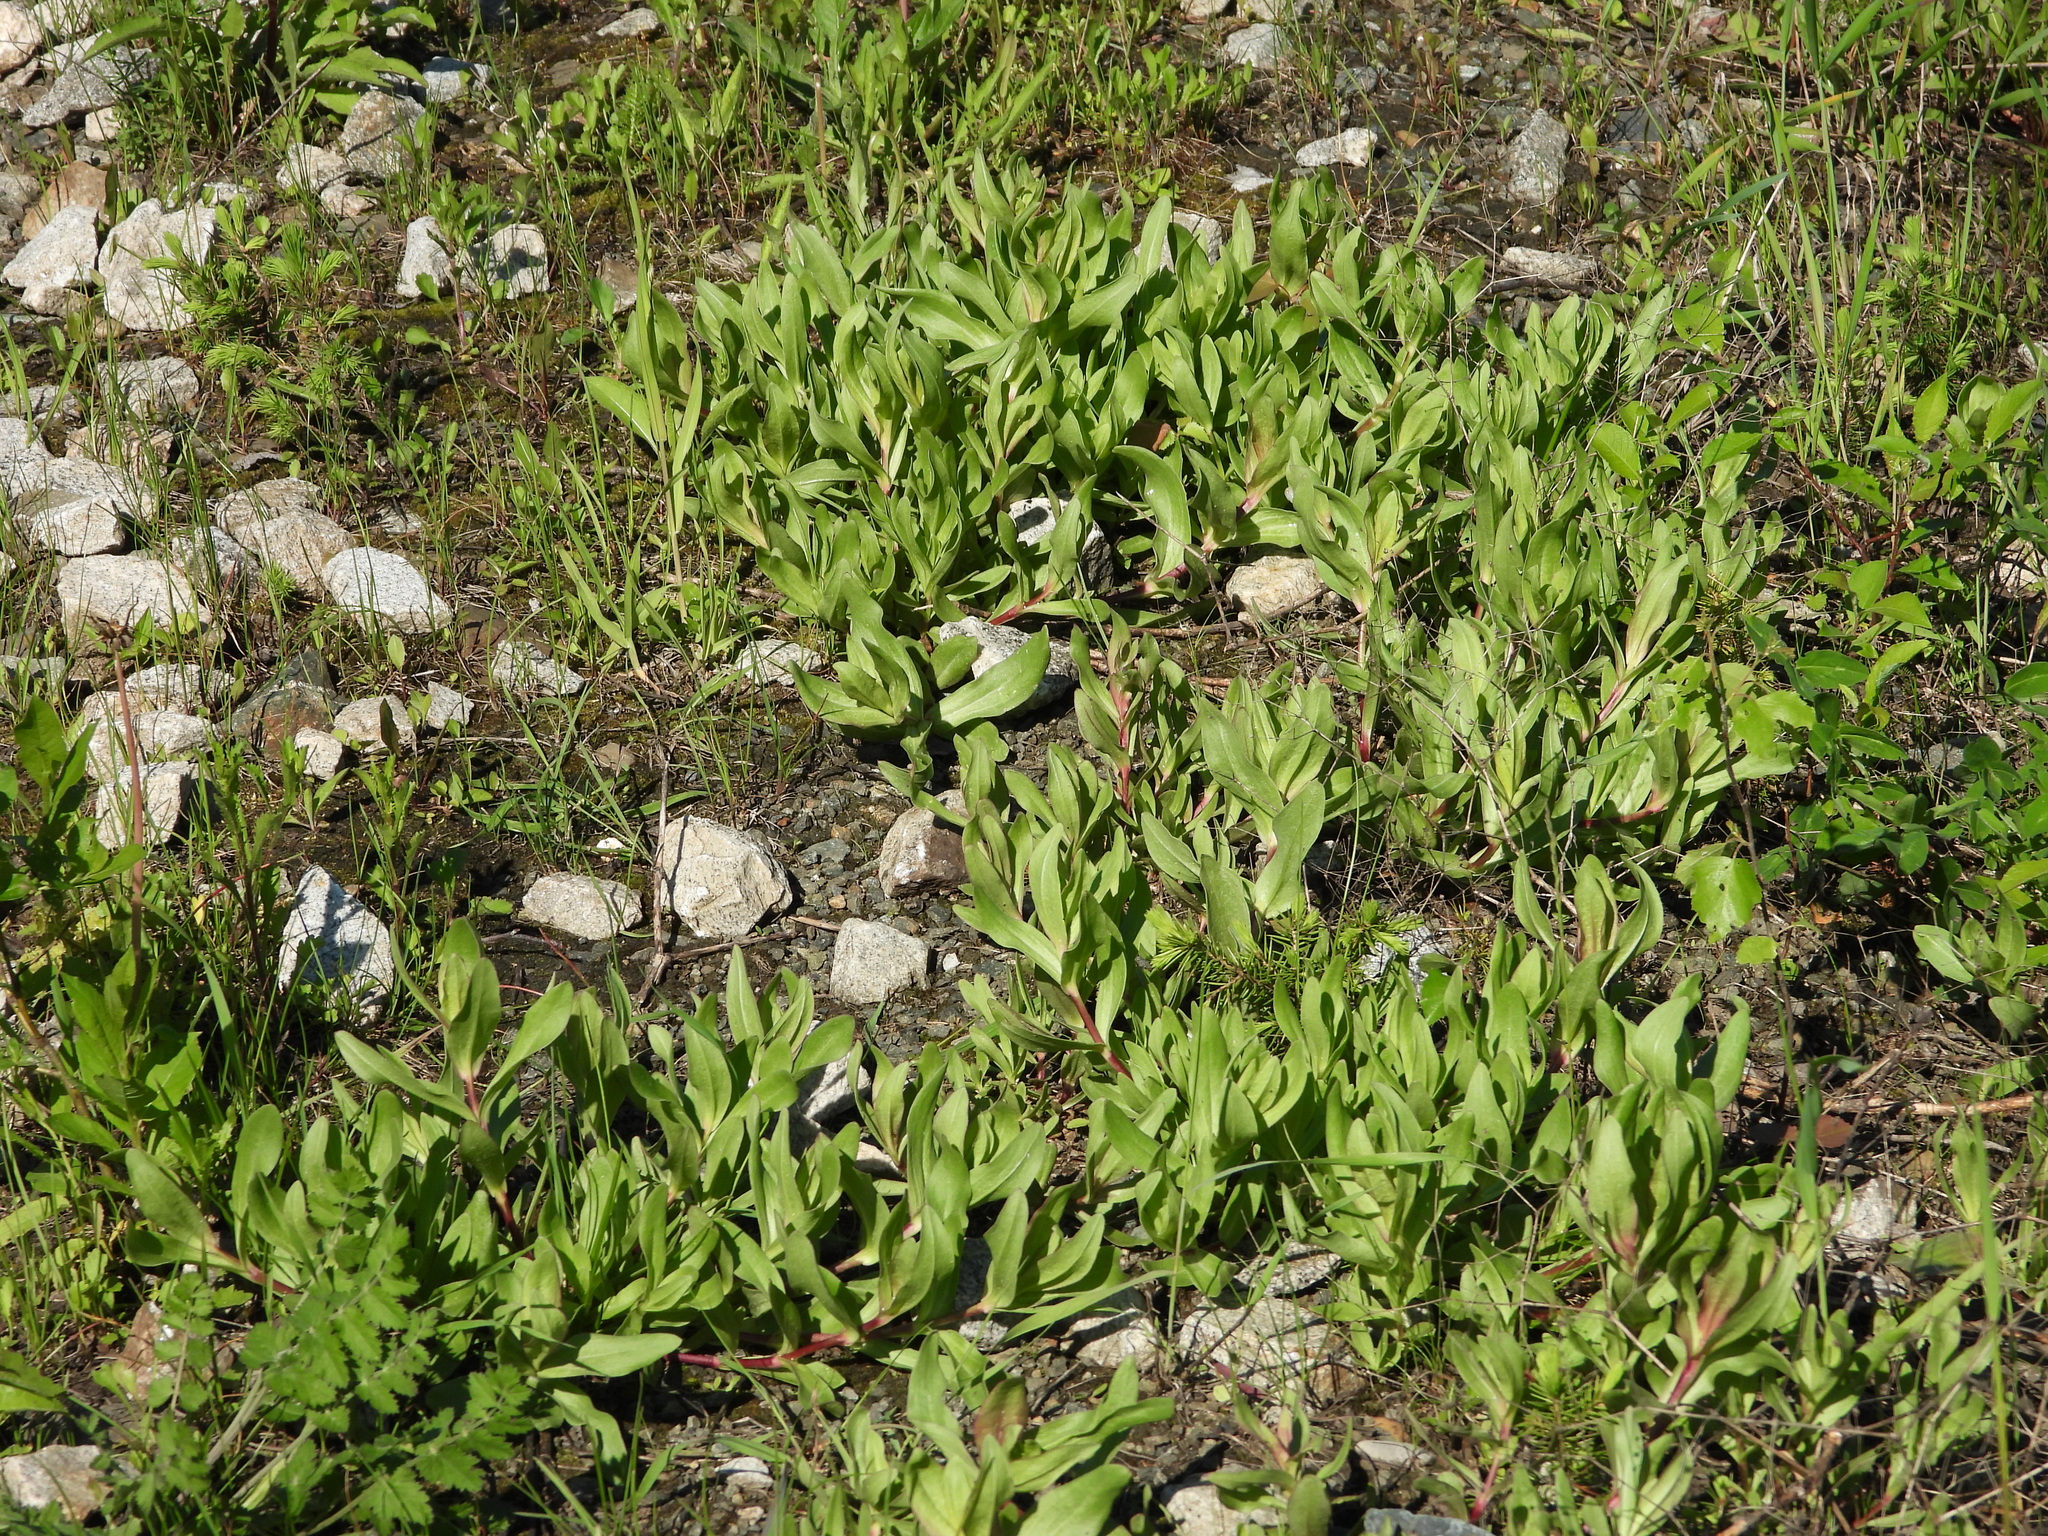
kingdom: Plantae
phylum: Tracheophyta
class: Magnoliopsida
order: Caryophyllales
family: Caryophyllaceae
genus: Gypsophila
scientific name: Gypsophila perfoliata
